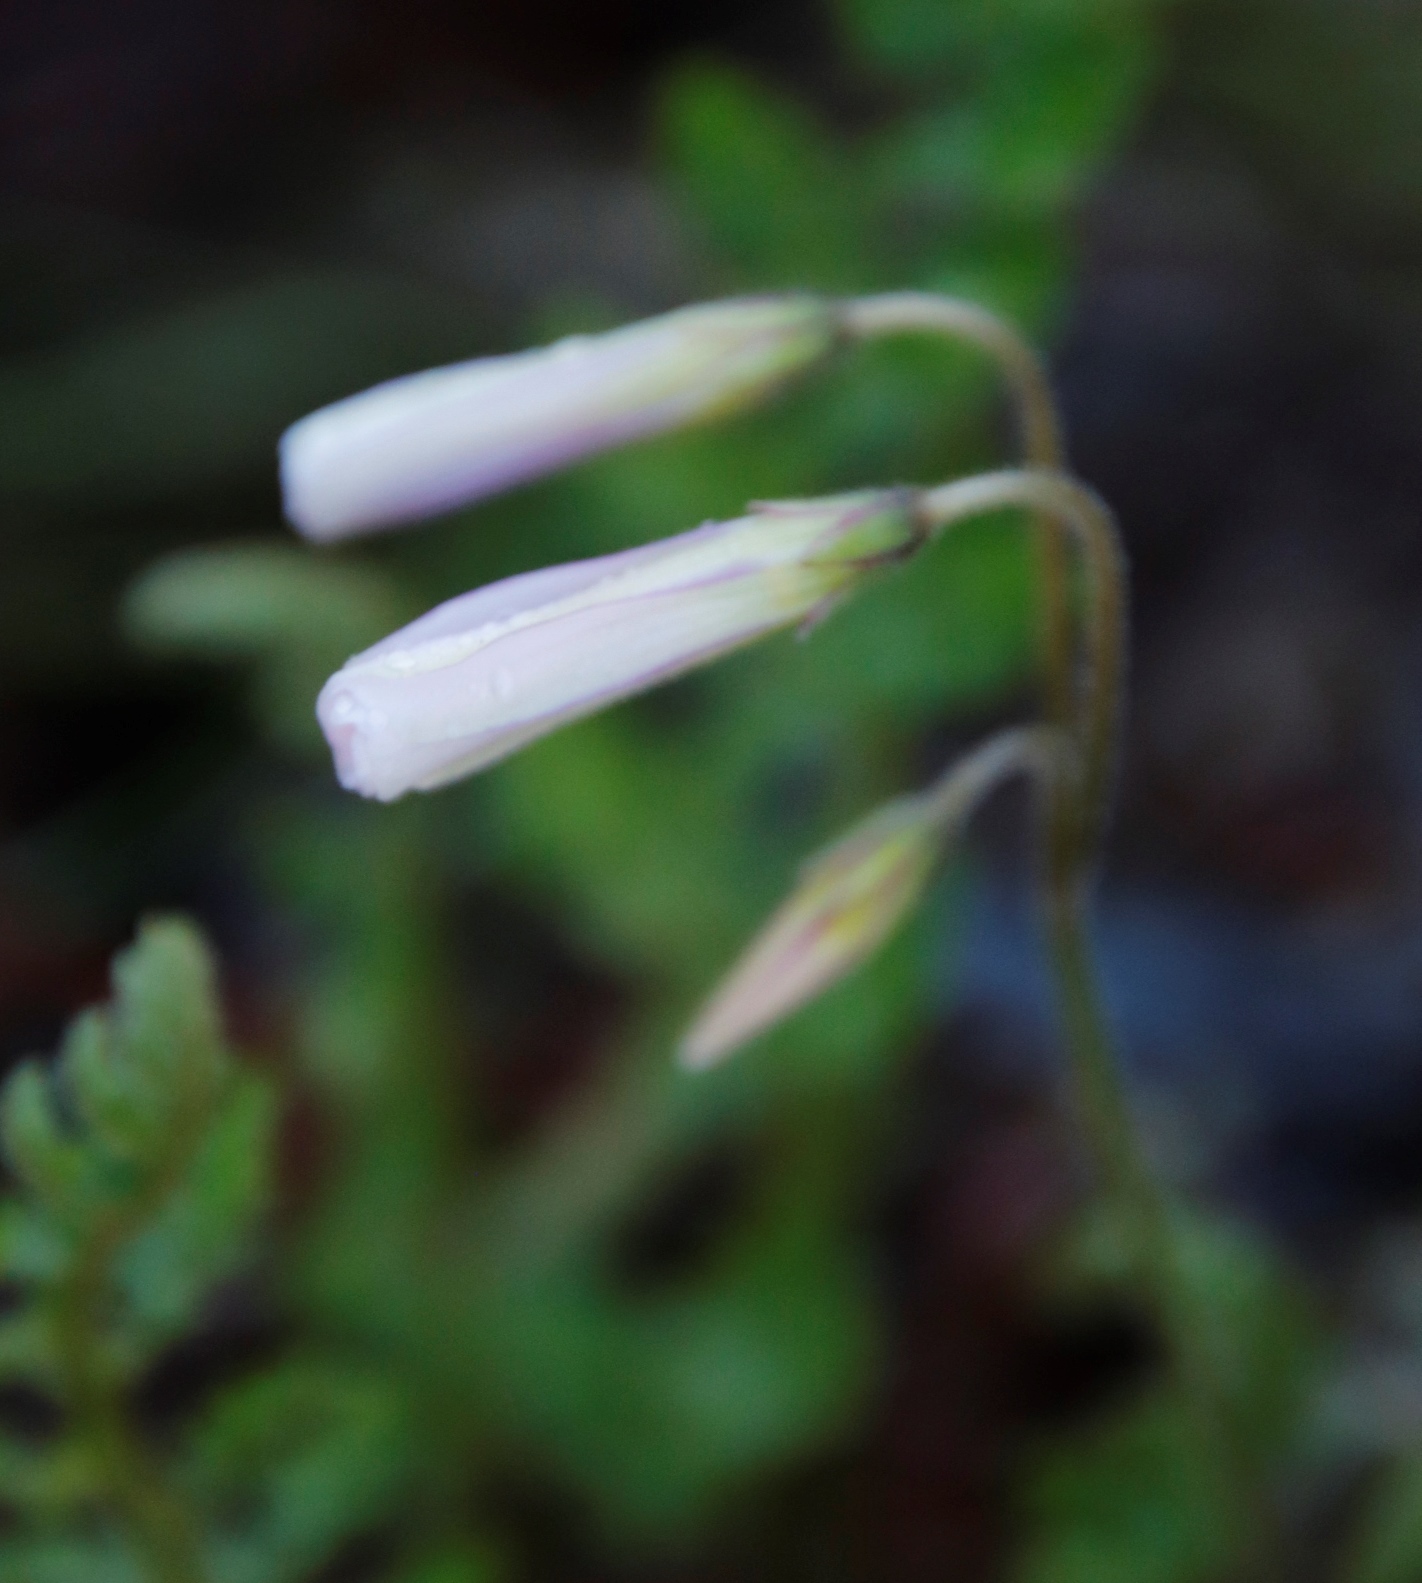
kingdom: Plantae
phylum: Tracheophyta
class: Magnoliopsida
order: Oxalidales
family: Oxalidaceae
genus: Oxalis
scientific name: Oxalis
